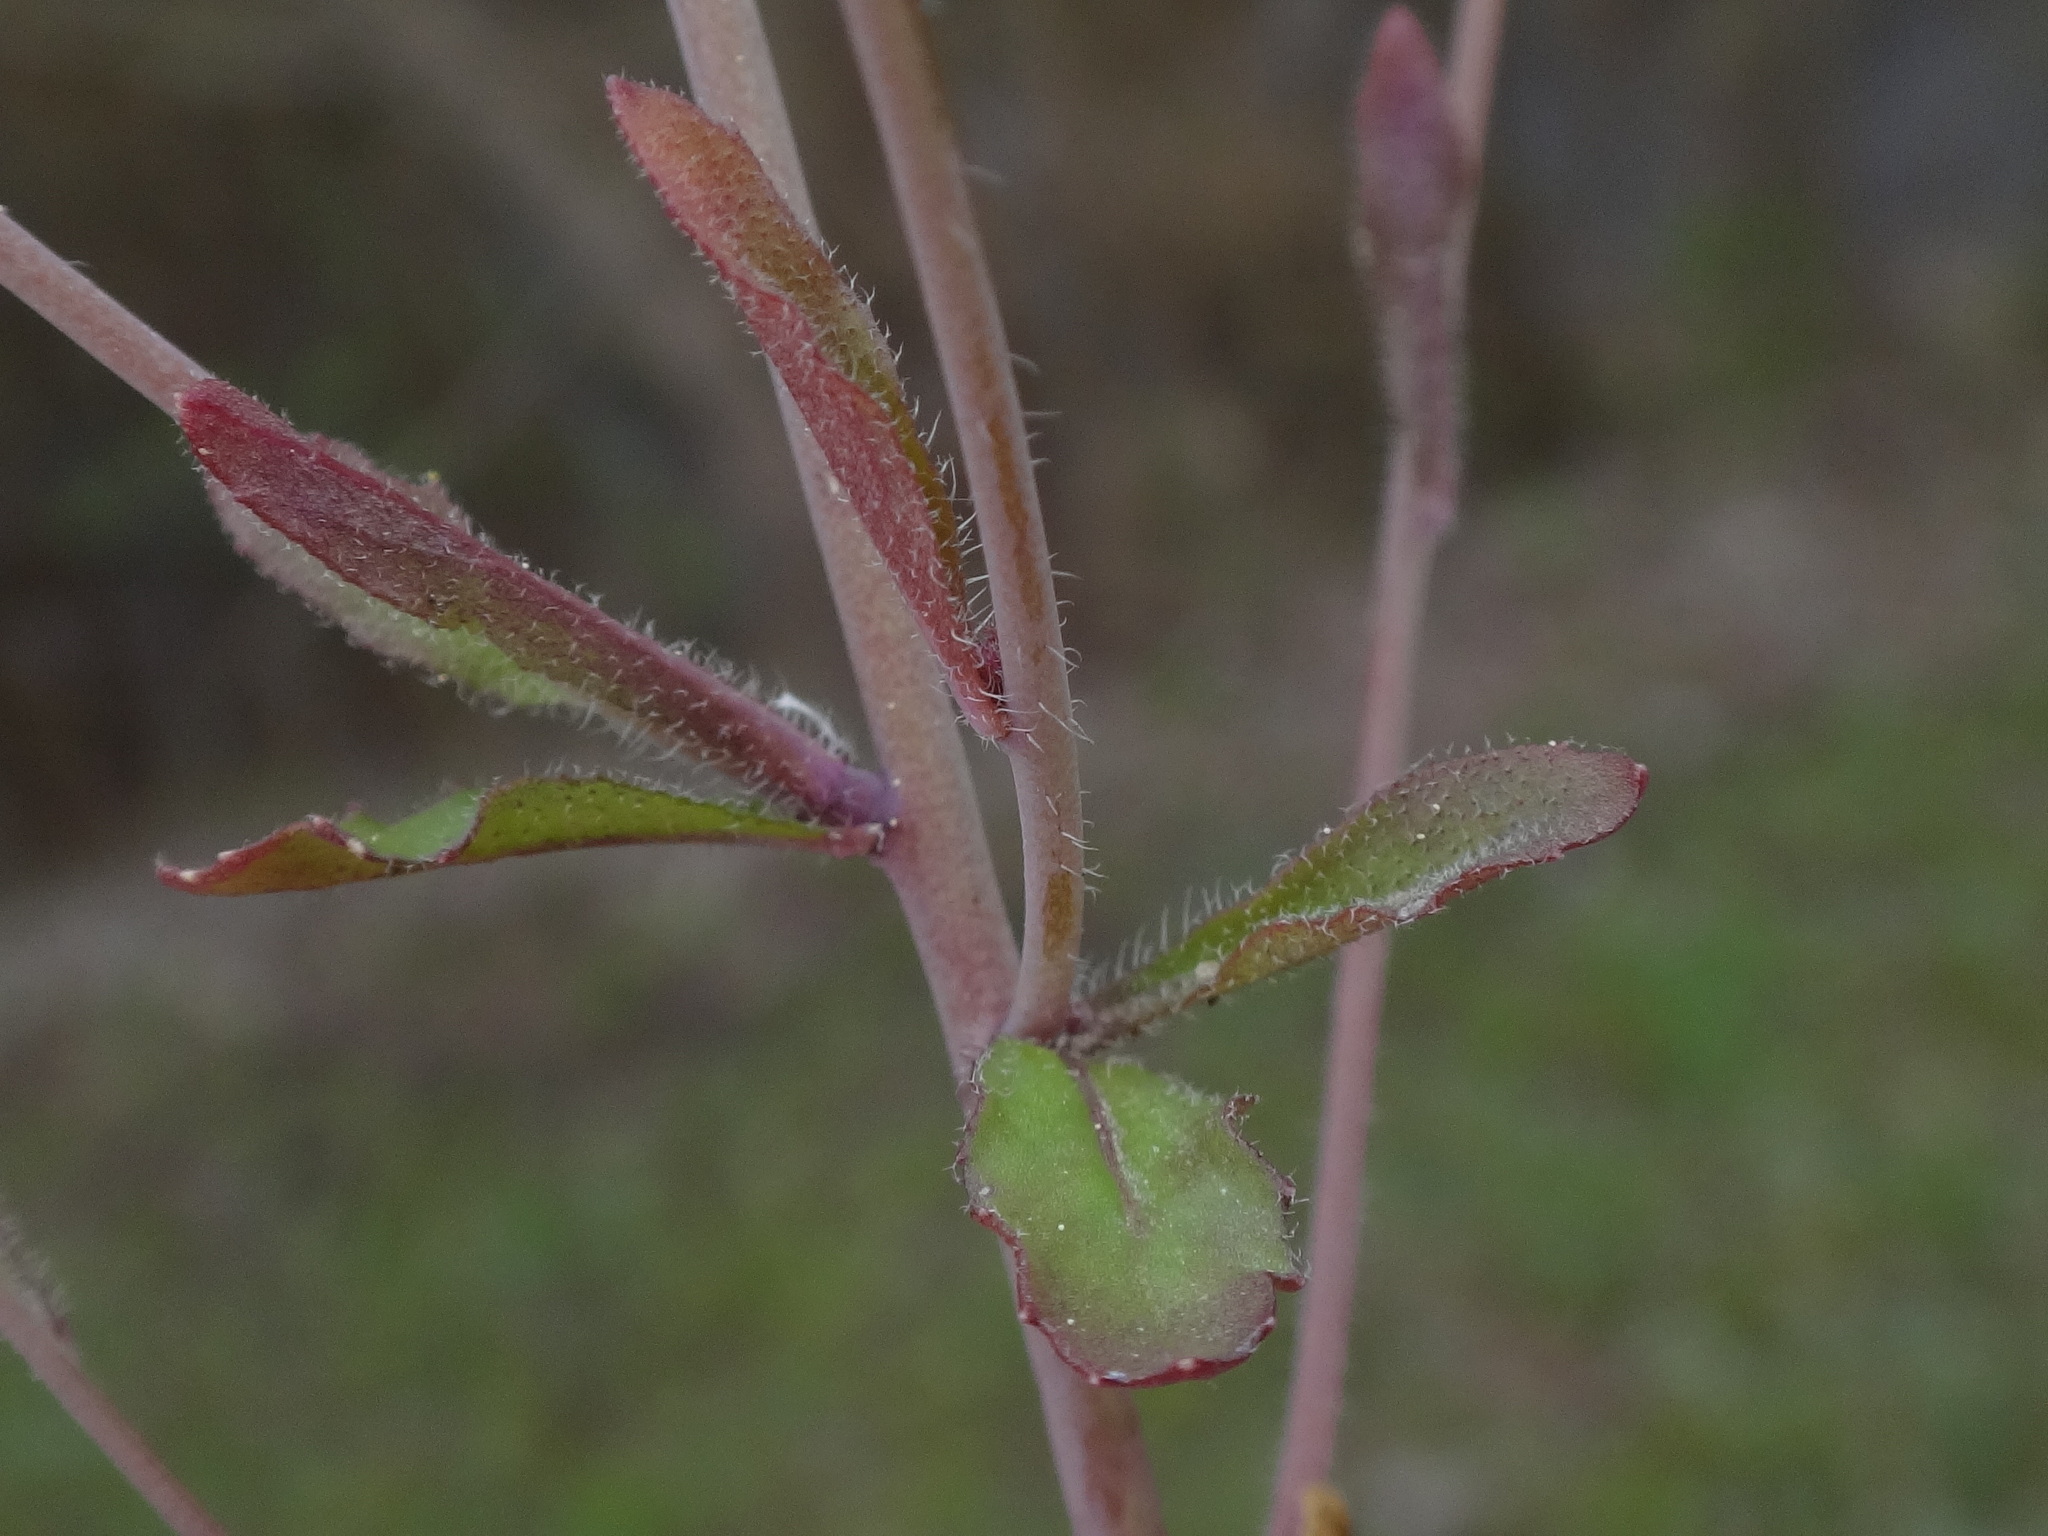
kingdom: Plantae
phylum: Tracheophyta
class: Magnoliopsida
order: Brassicales
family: Brassicaceae
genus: Arabidopsis
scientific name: Arabidopsis thaliana
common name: Thale cress
